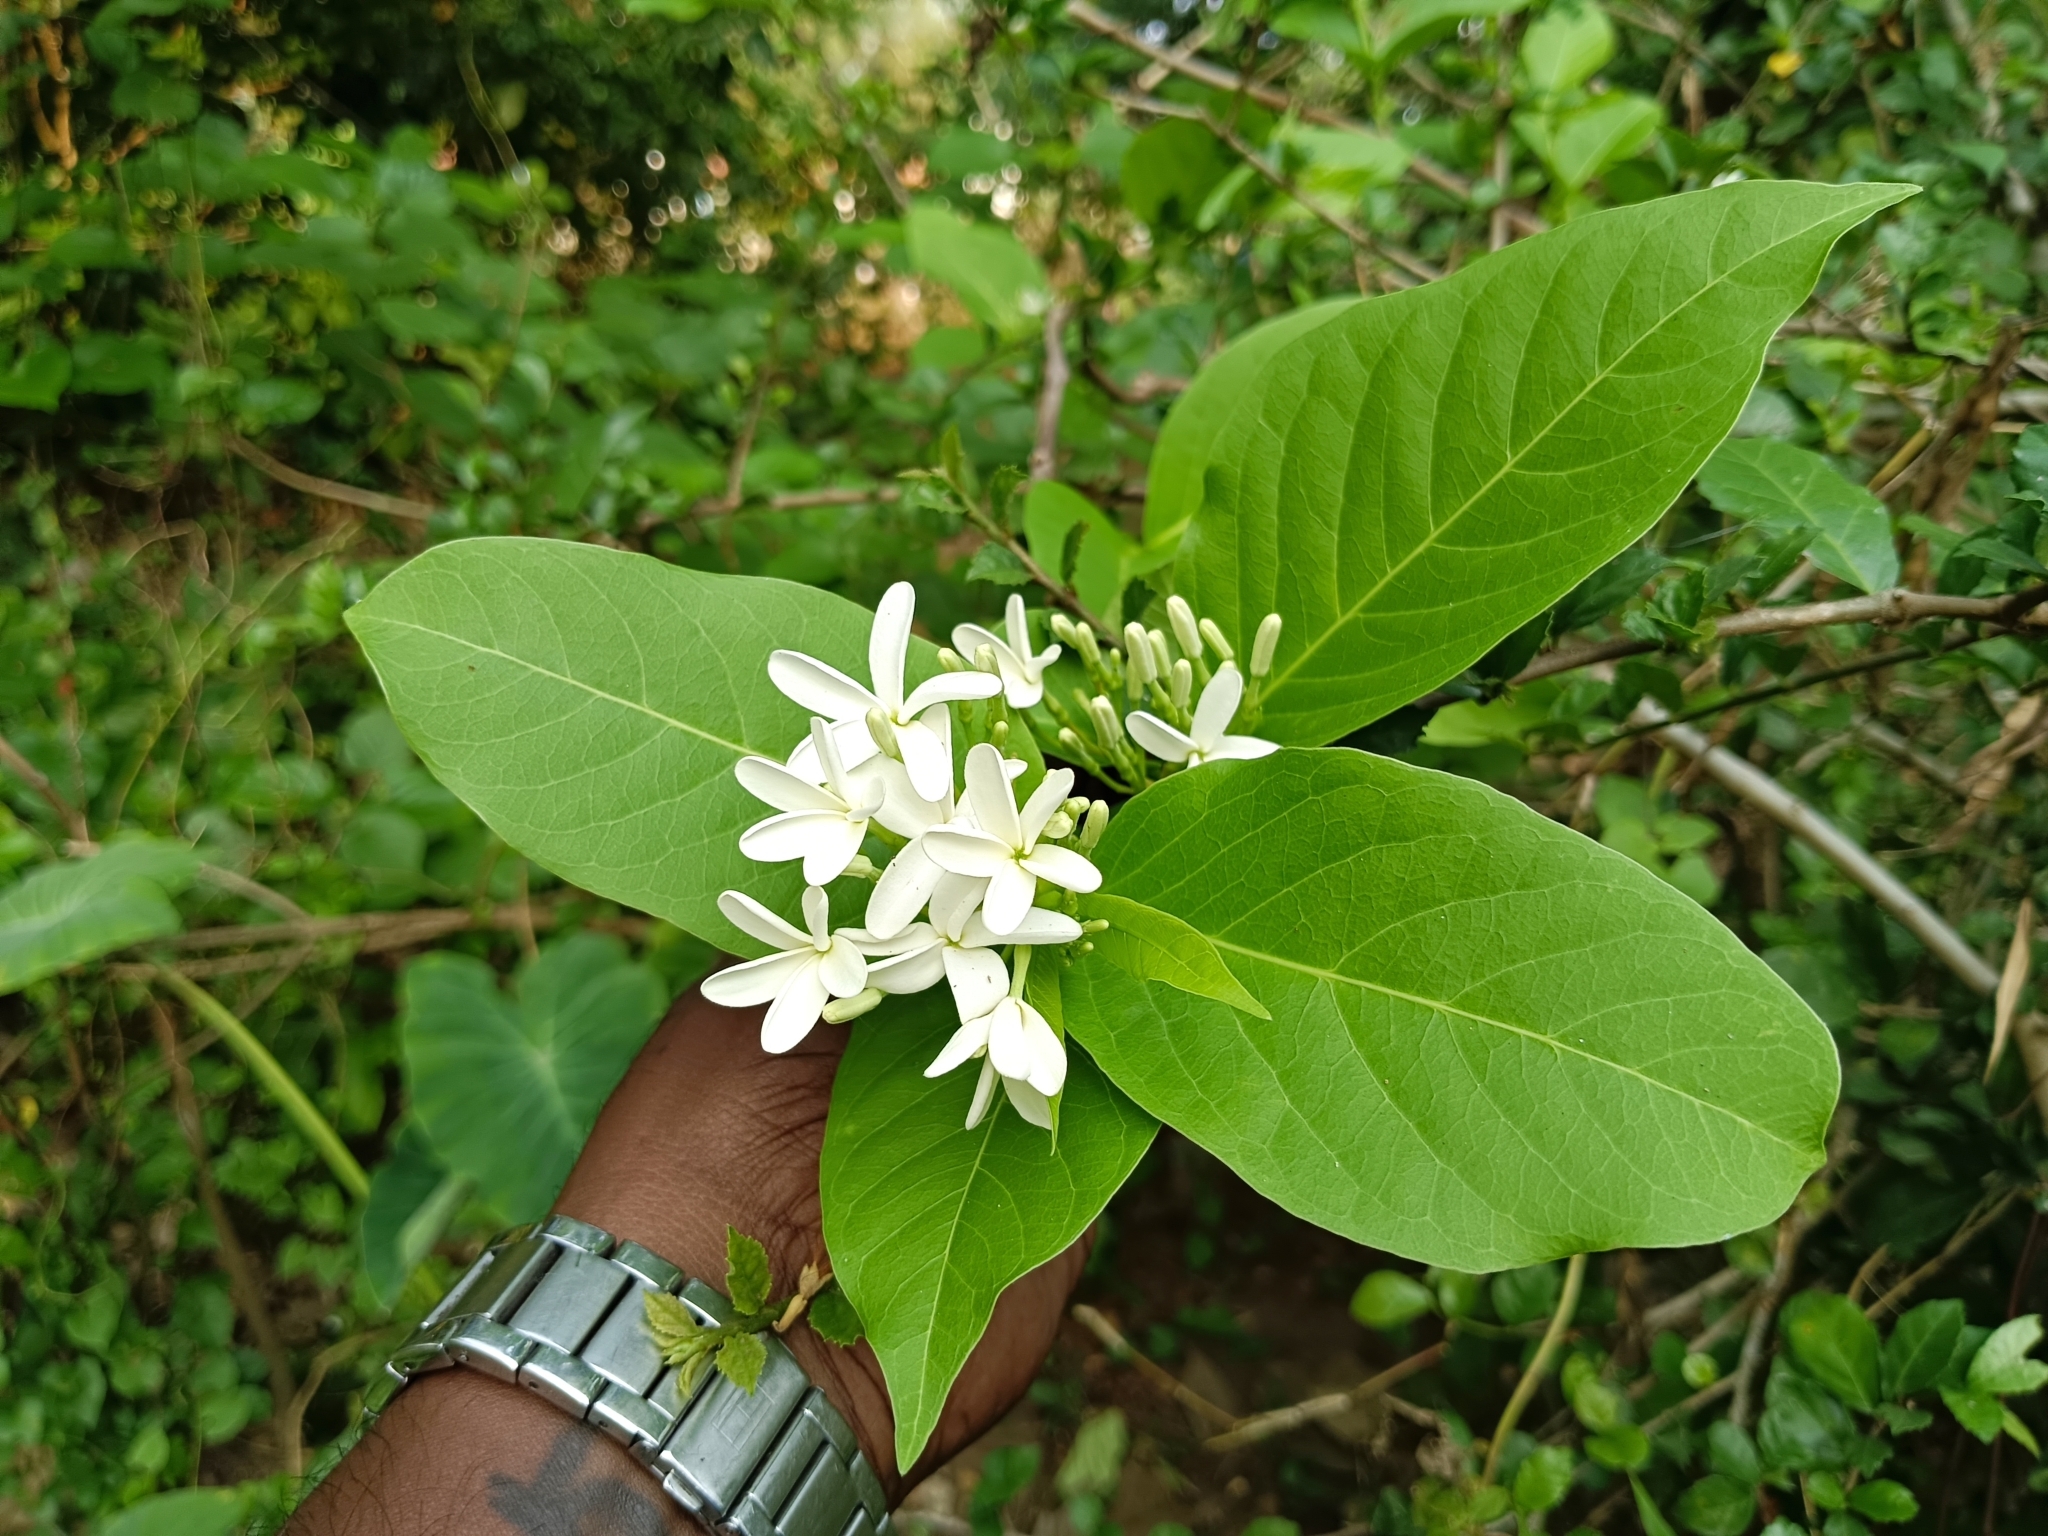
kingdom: Plantae
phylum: Tracheophyta
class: Magnoliopsida
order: Gentianales
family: Apocynaceae
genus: Holarrhena
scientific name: Holarrhena pubescens
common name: Bitter oleander
